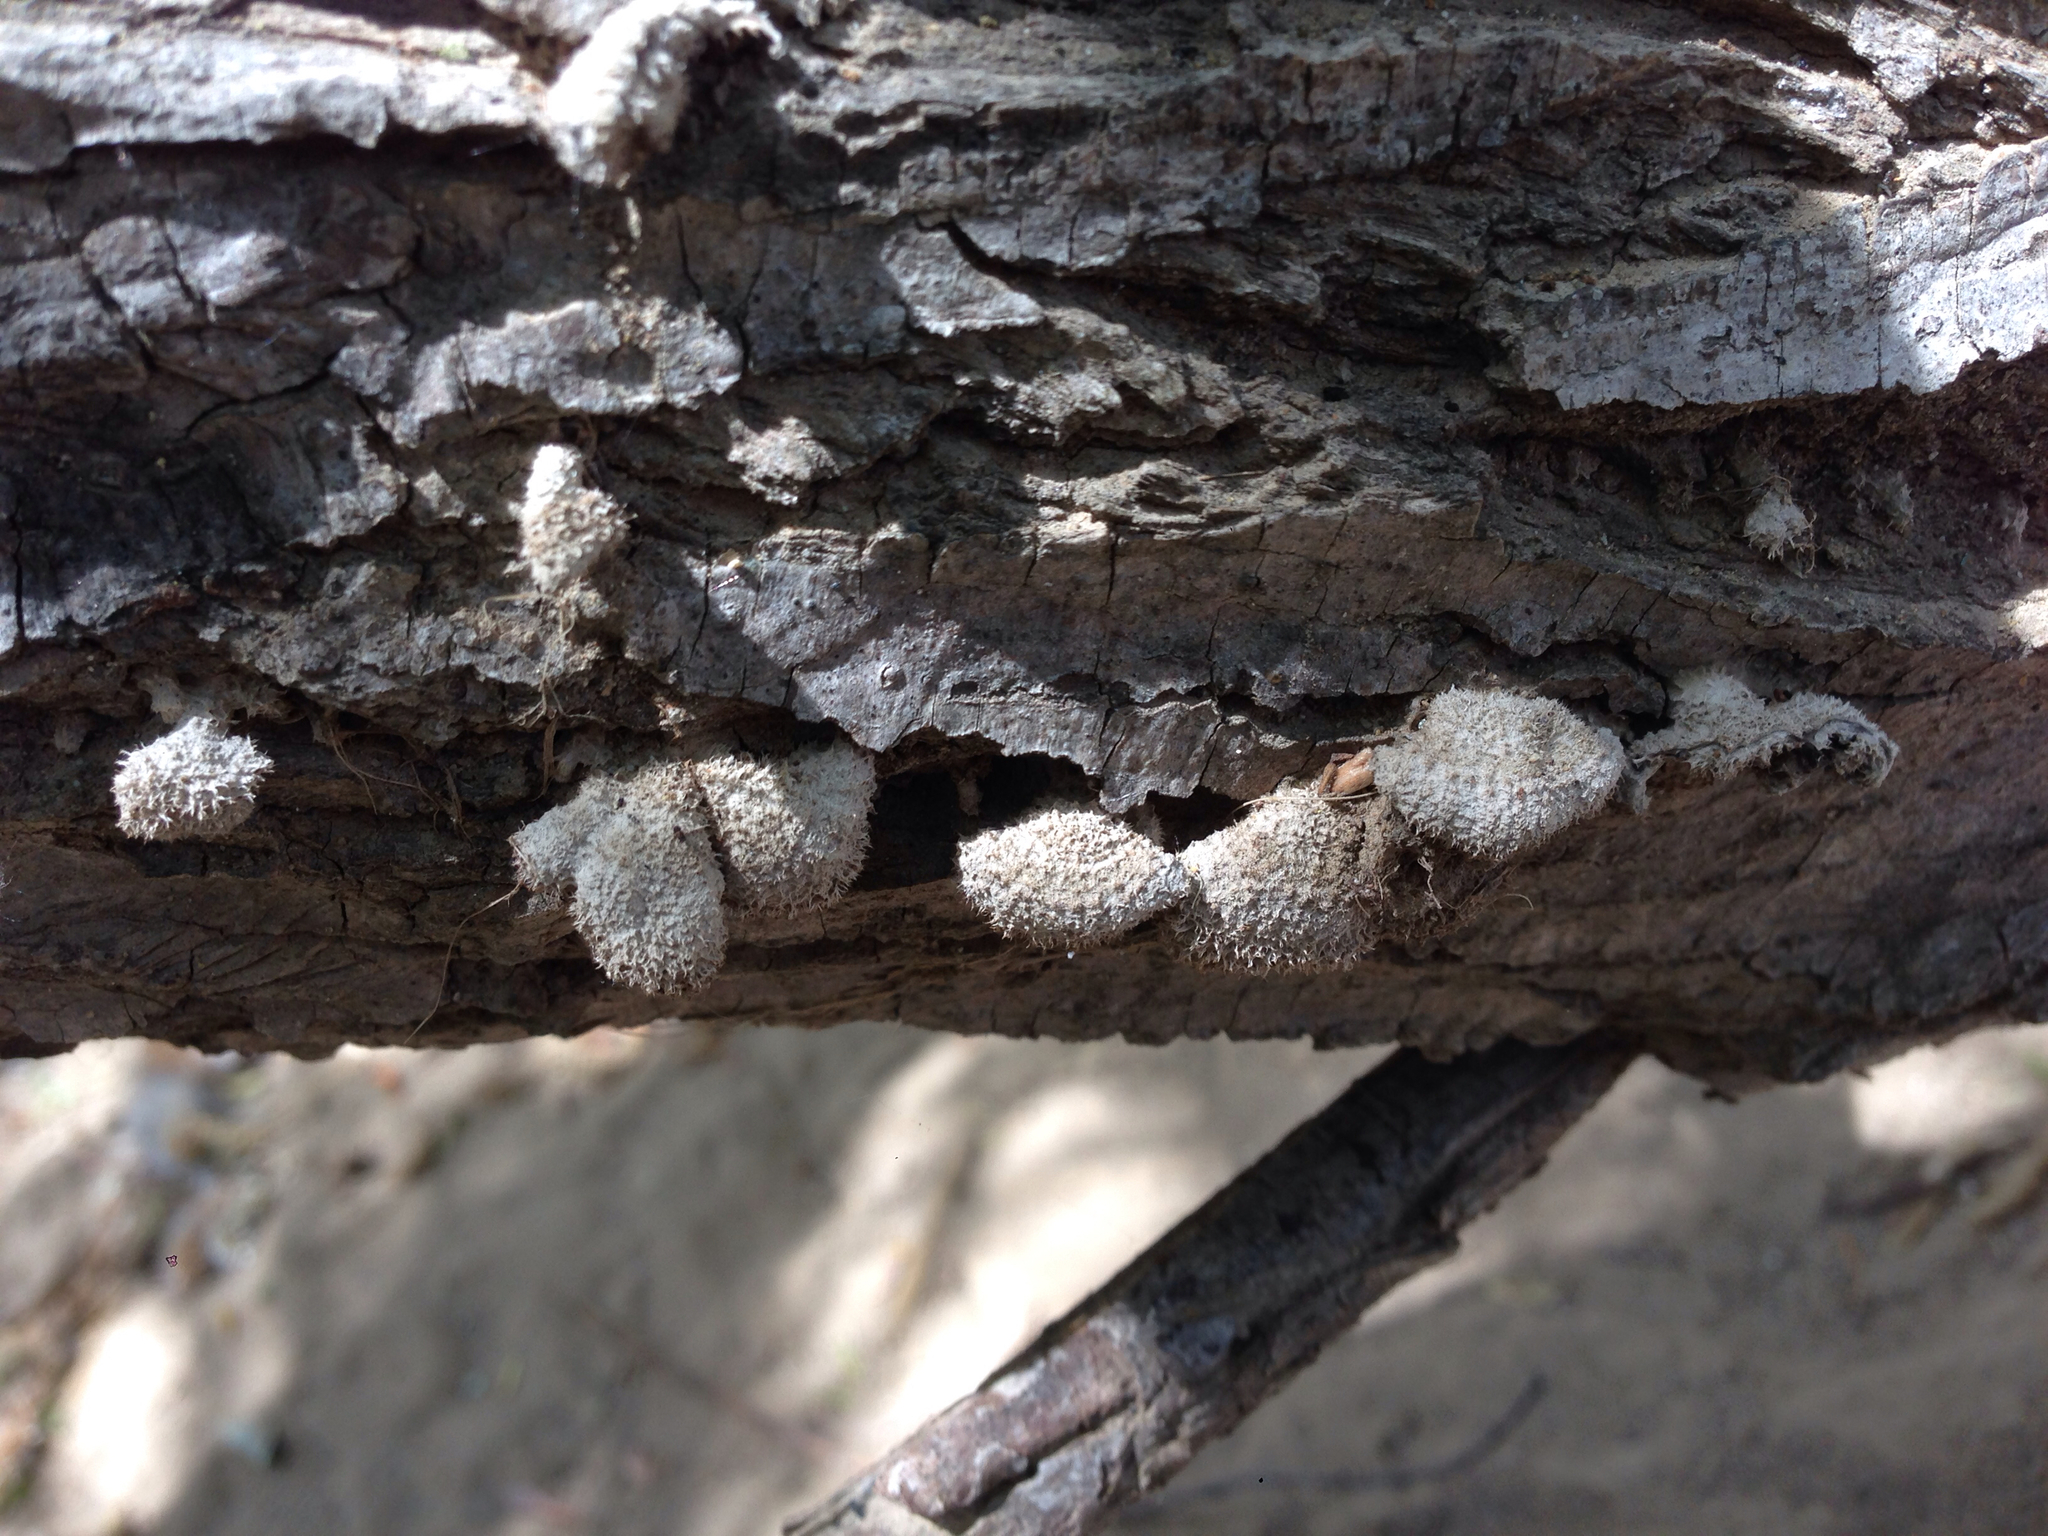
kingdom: Fungi
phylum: Basidiomycota
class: Agaricomycetes
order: Agaricales
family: Schizophyllaceae
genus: Schizophyllum
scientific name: Schizophyllum commune
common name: Common porecrust
